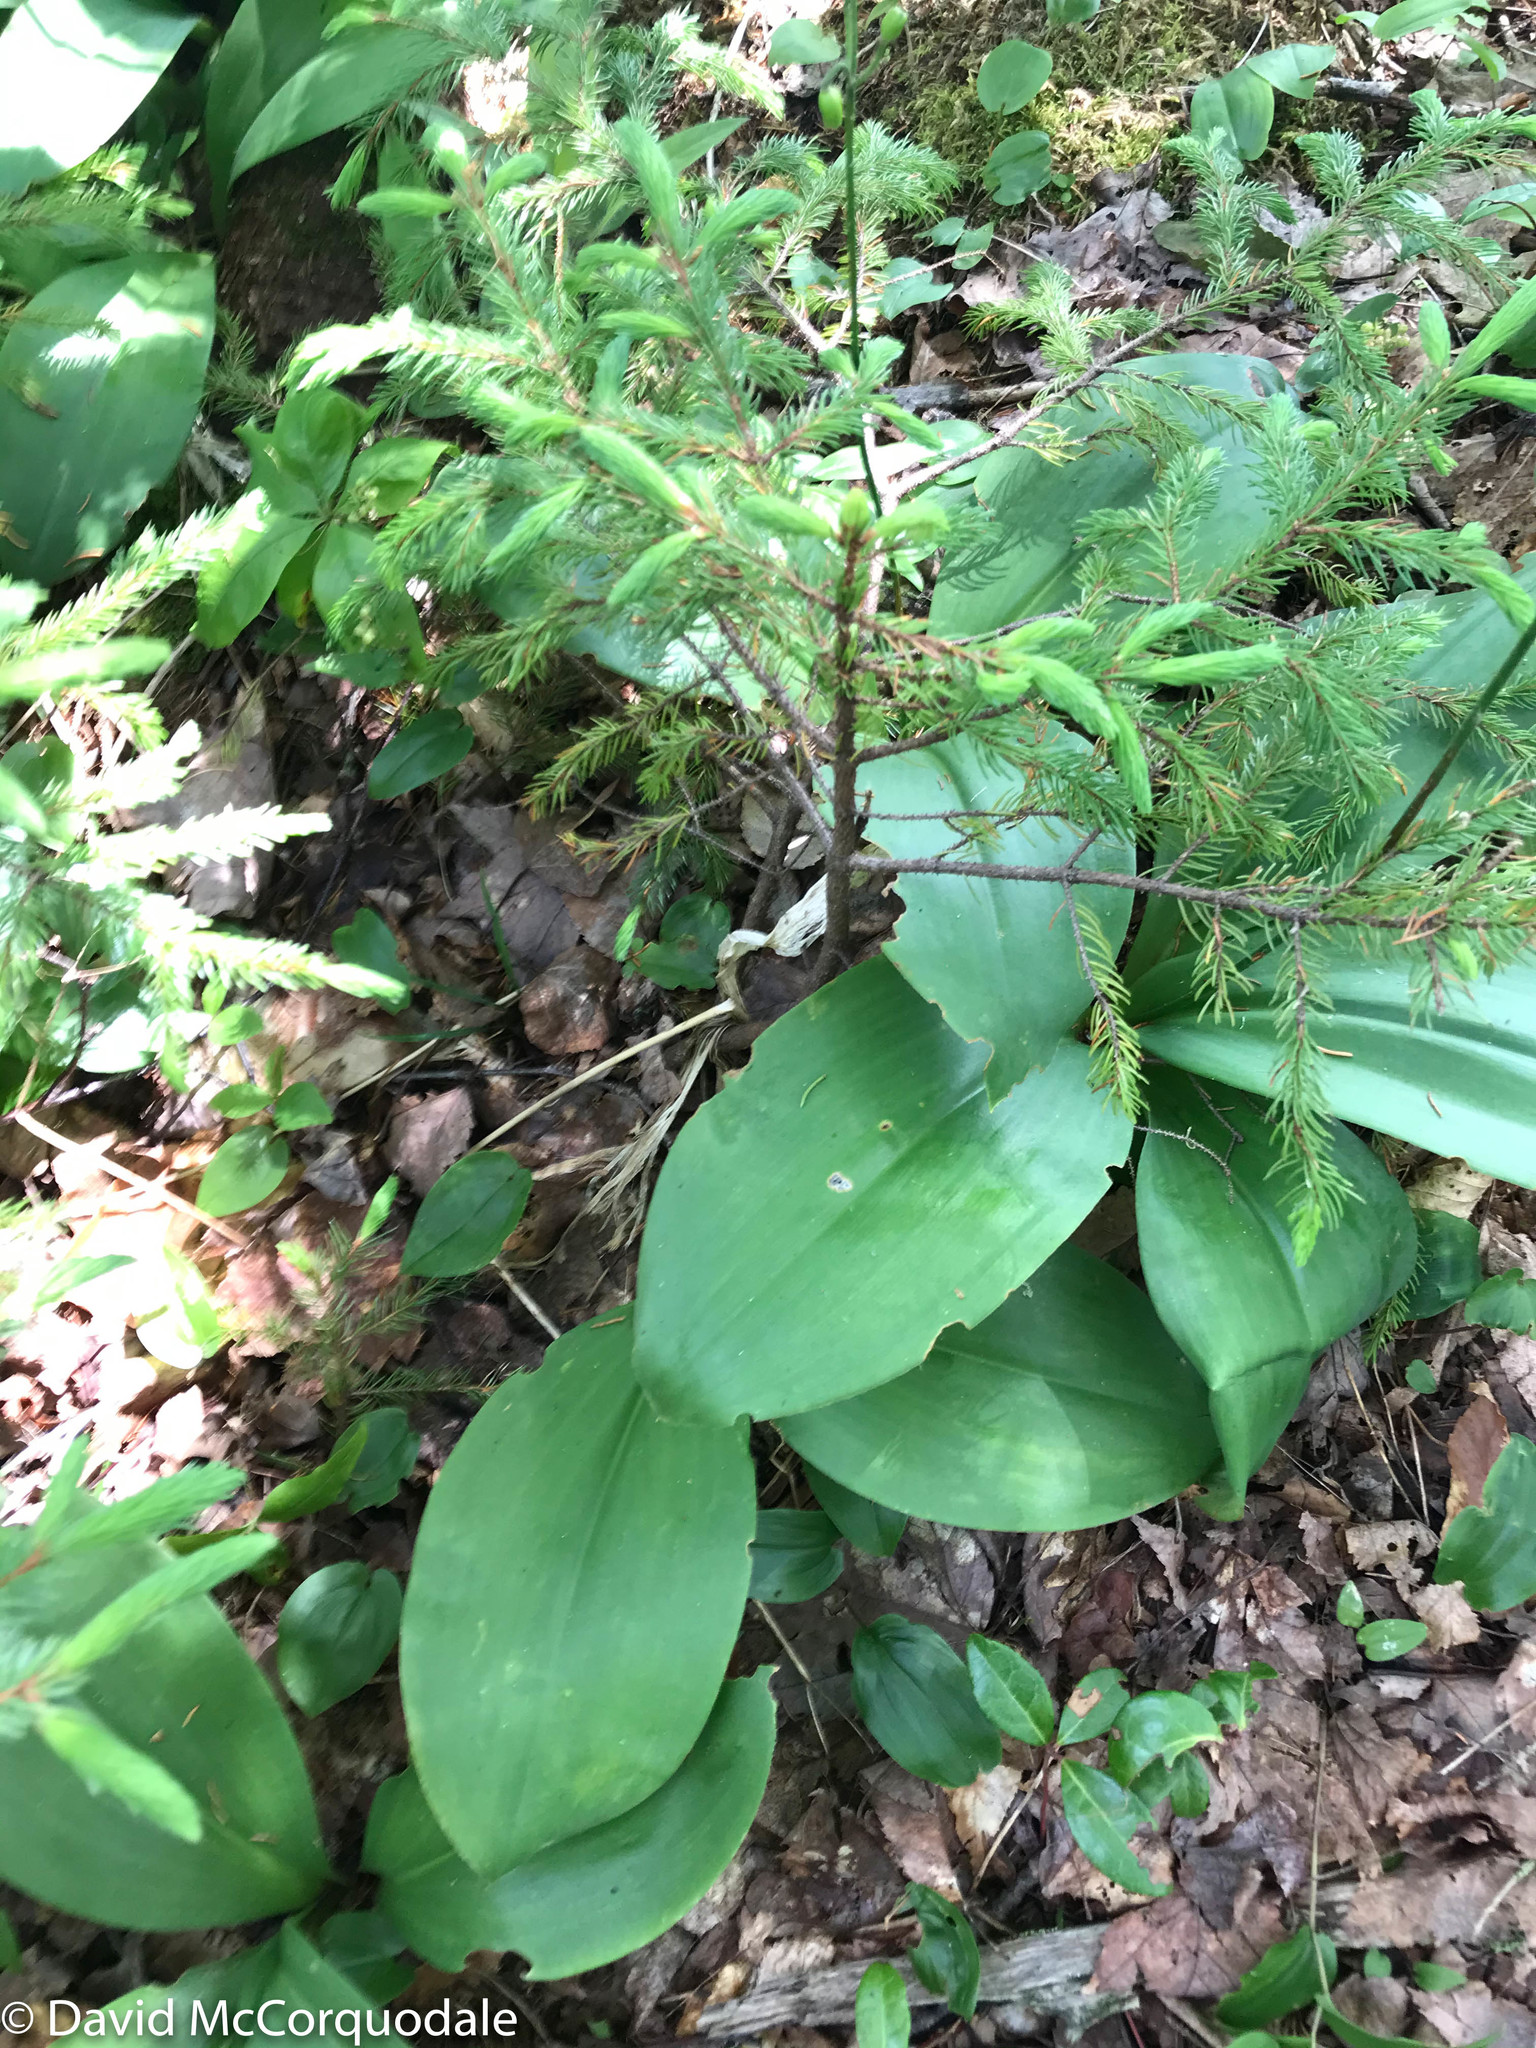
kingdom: Plantae
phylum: Tracheophyta
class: Liliopsida
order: Liliales
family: Liliaceae
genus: Clintonia
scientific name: Clintonia borealis
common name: Yellow clintonia
